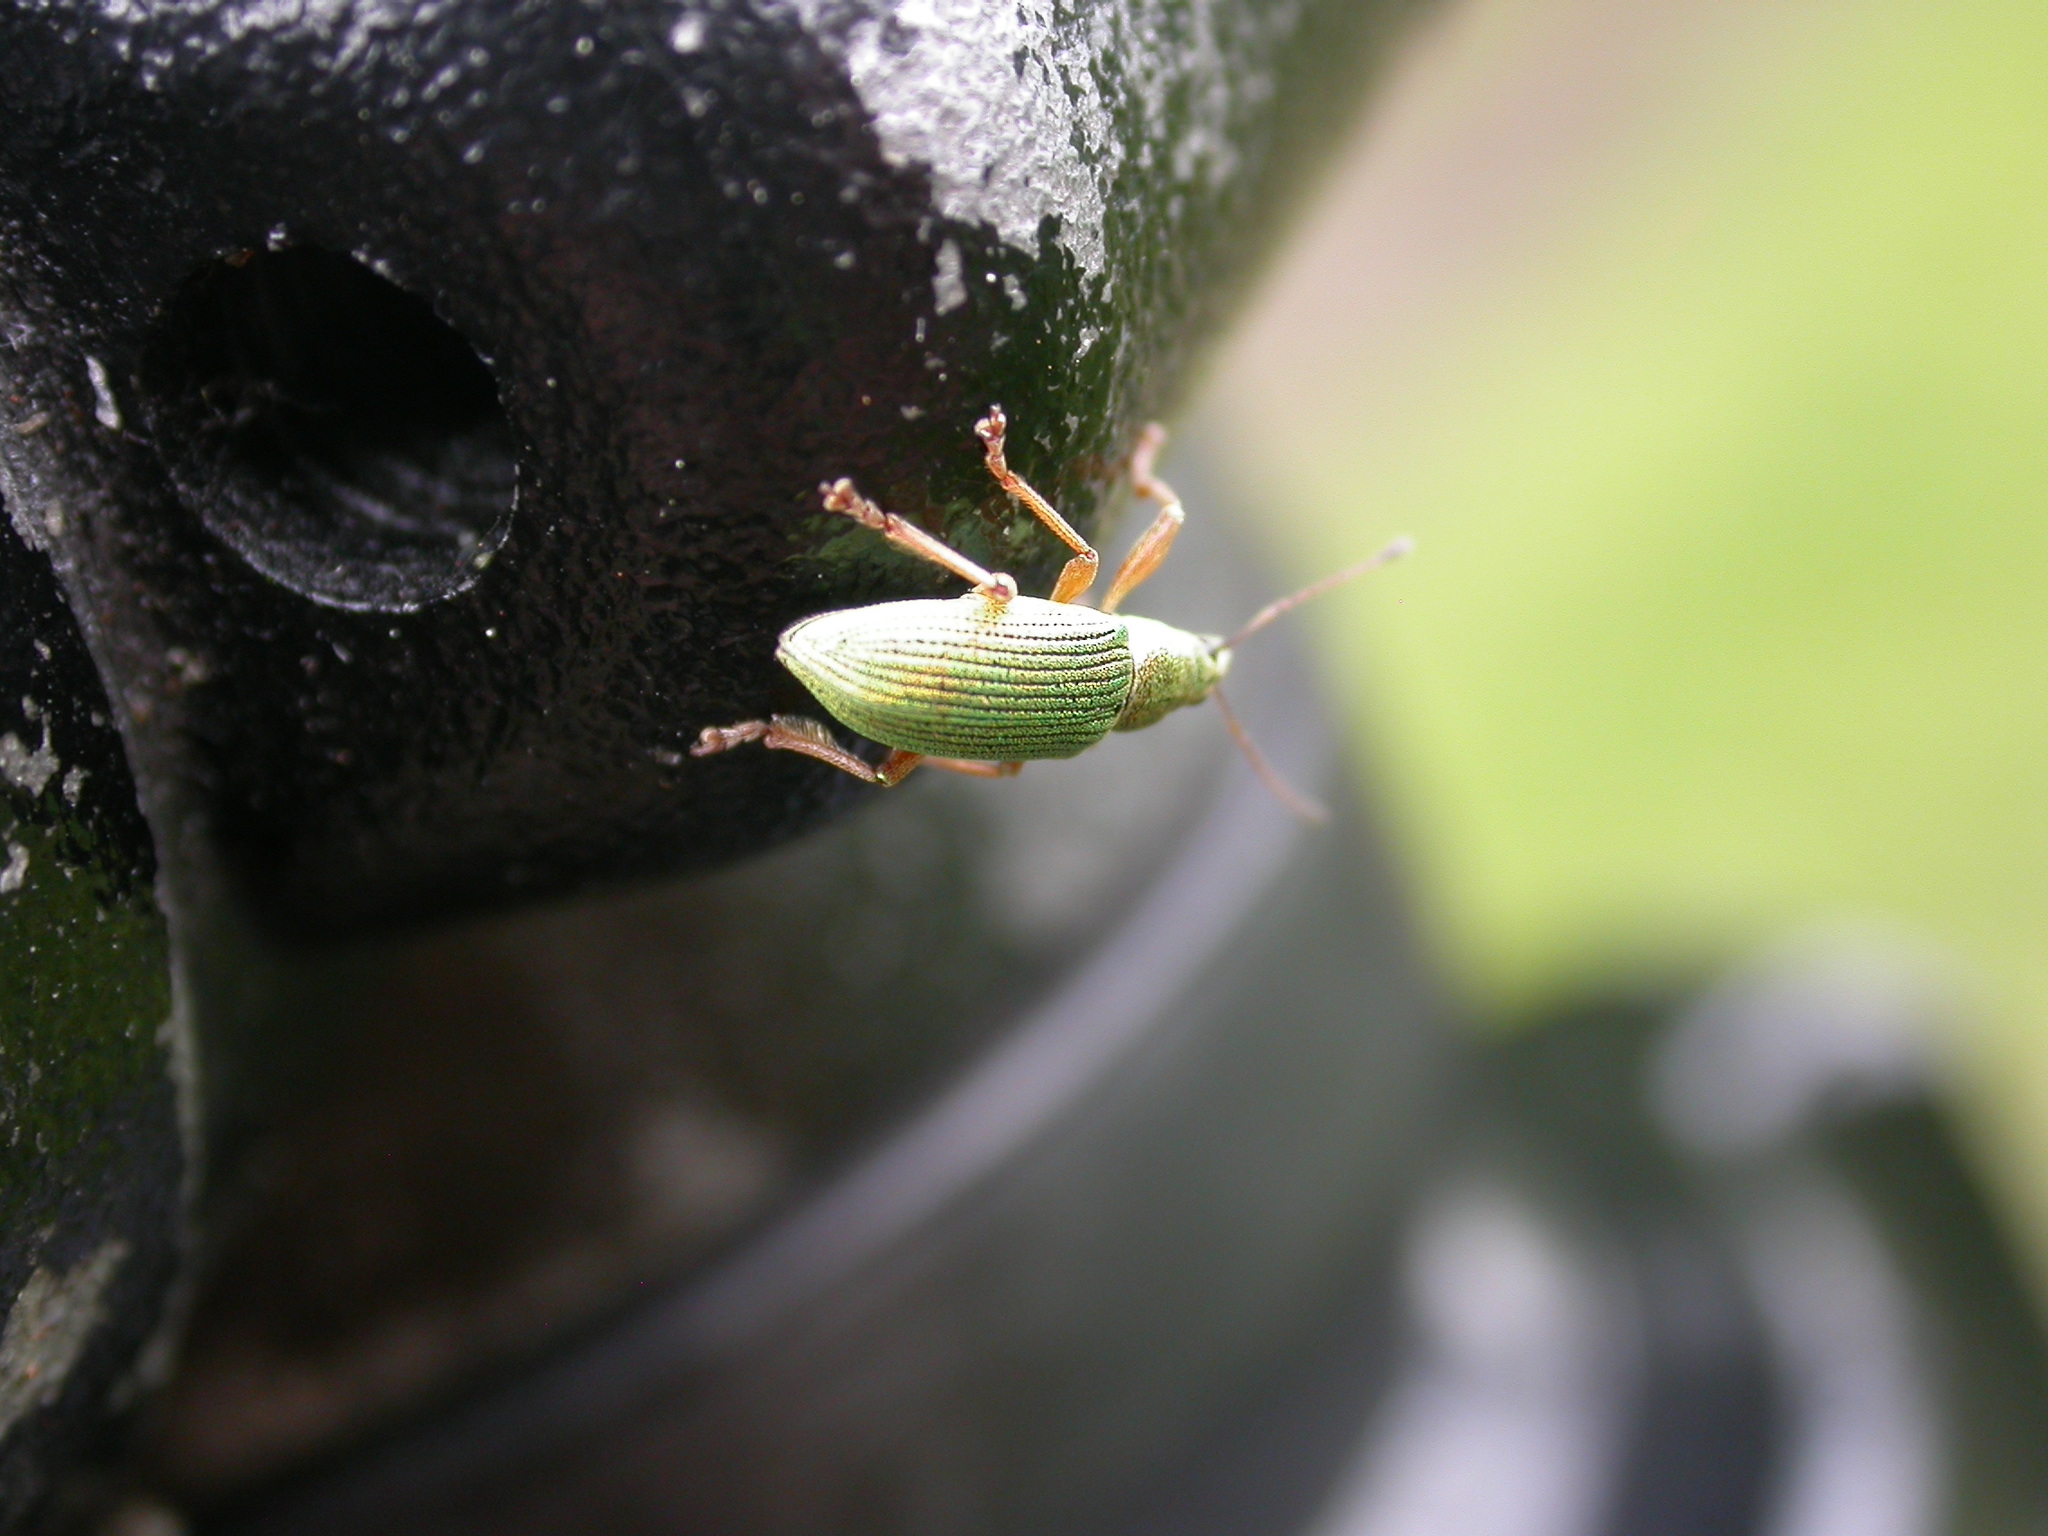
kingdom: Animalia
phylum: Arthropoda
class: Insecta
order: Coleoptera
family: Curculionidae
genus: Polydrusus
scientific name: Polydrusus formosus
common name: Weevil
